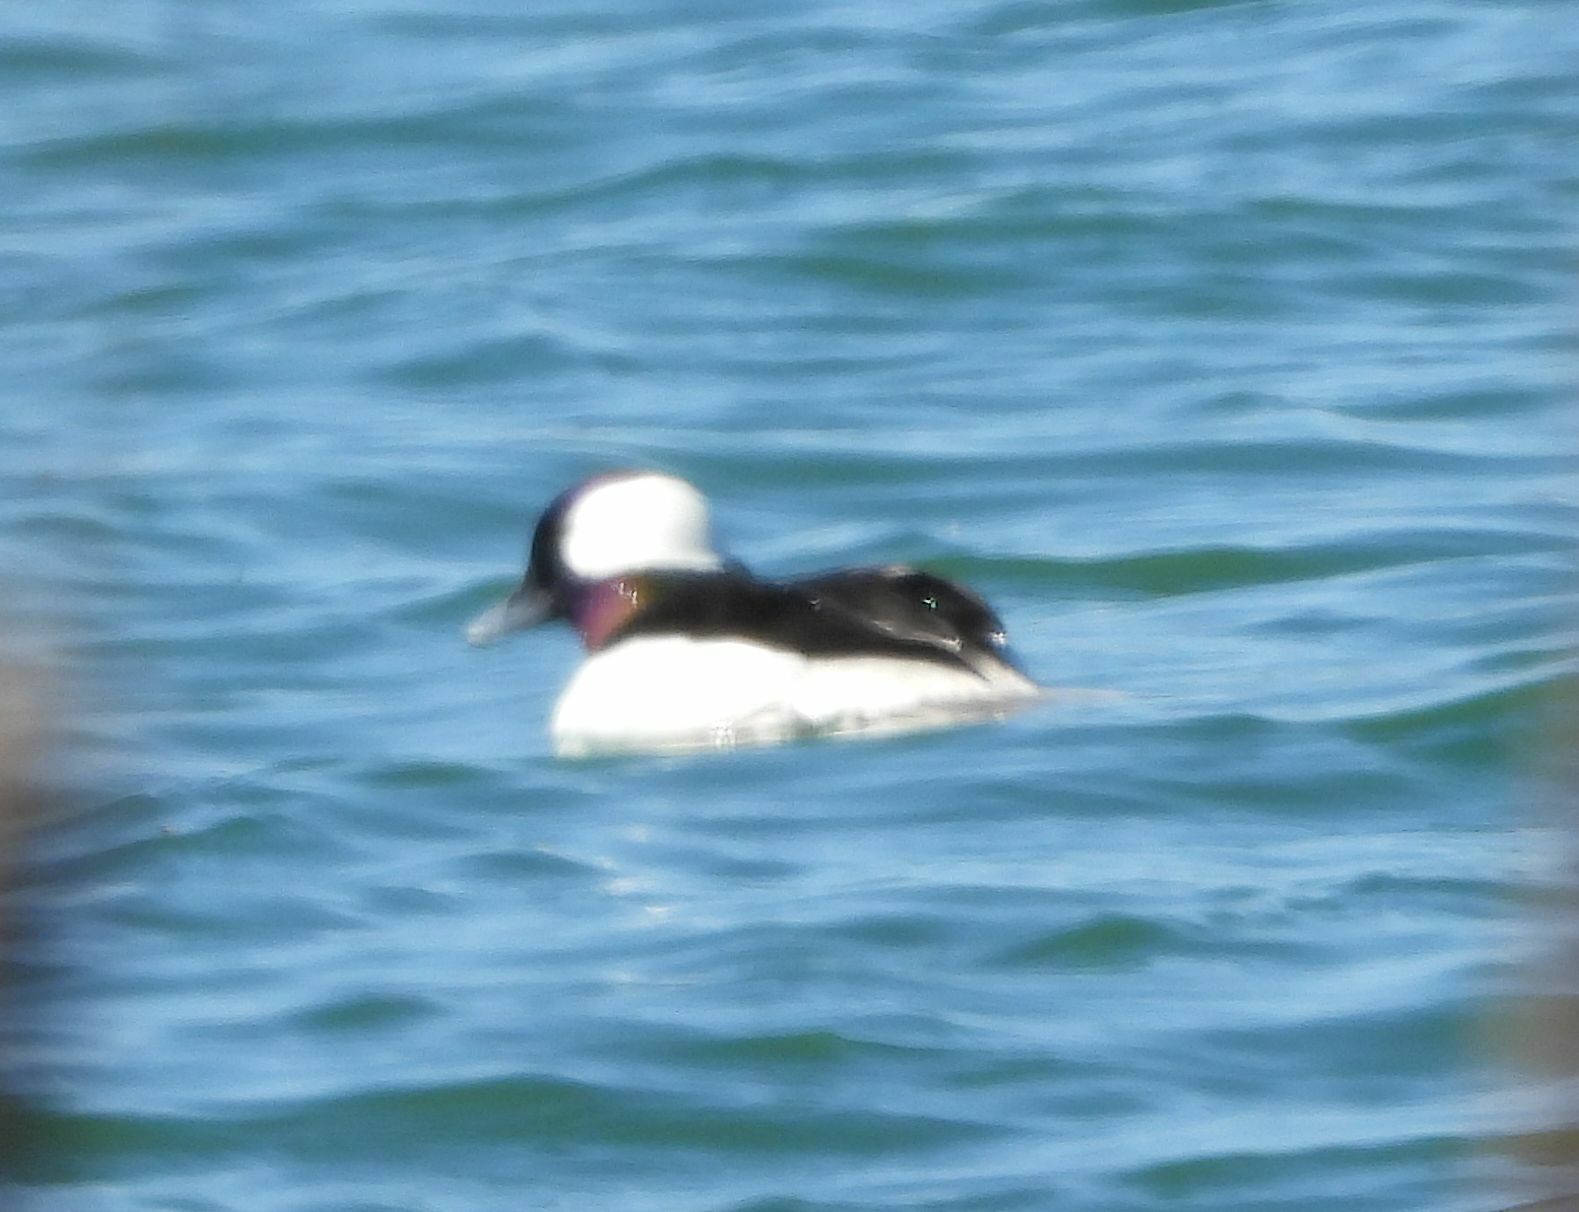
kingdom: Animalia
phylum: Chordata
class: Aves
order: Anseriformes
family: Anatidae
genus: Bucephala
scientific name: Bucephala albeola
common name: Bufflehead
